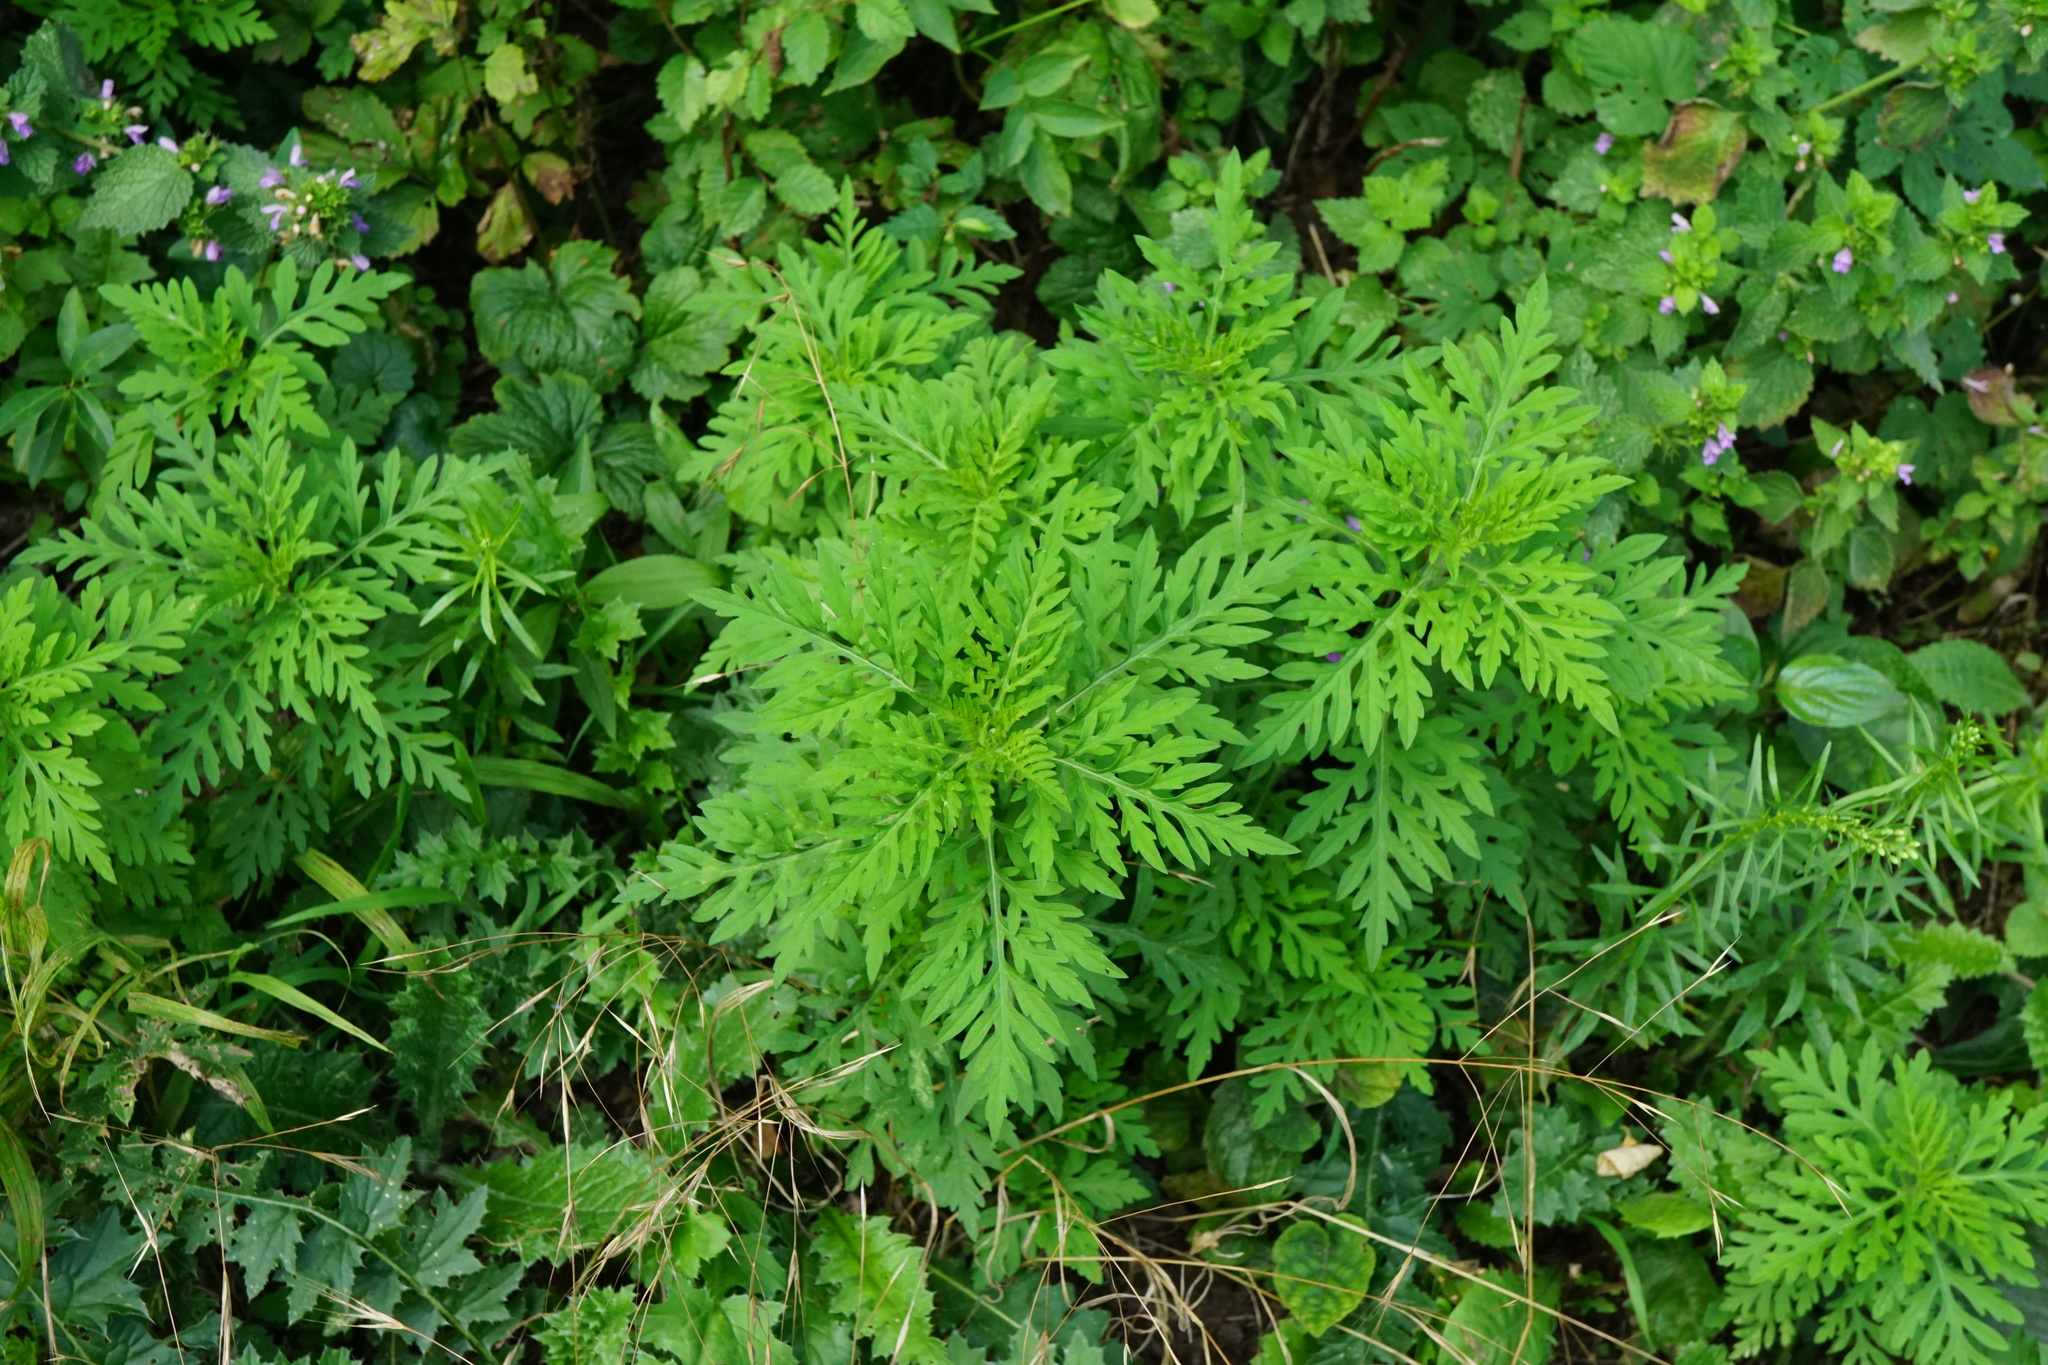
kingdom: Plantae
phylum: Tracheophyta
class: Magnoliopsida
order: Asterales
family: Asteraceae
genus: Ambrosia
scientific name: Ambrosia artemisiifolia
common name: Annual ragweed
